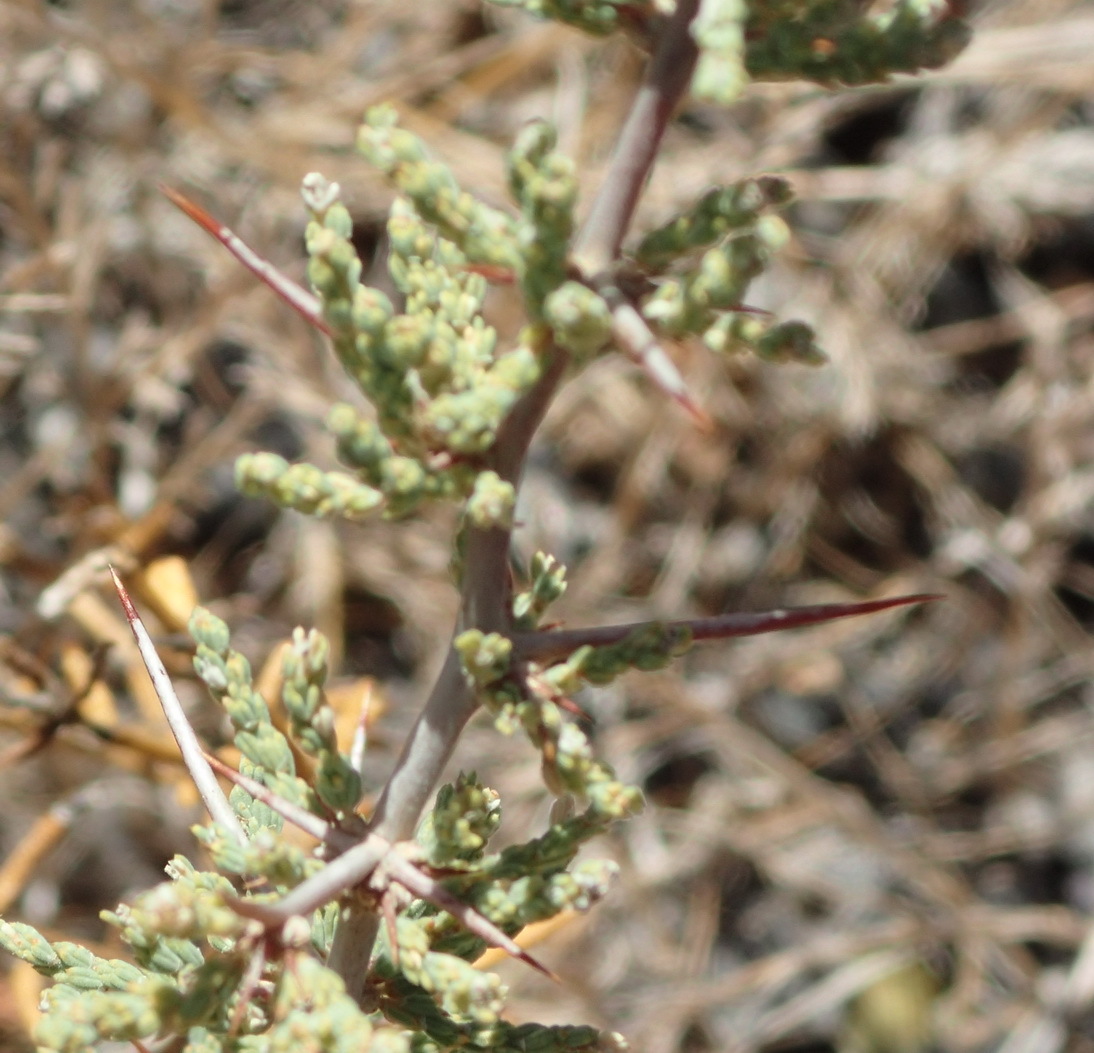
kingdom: Plantae
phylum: Tracheophyta
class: Liliopsida
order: Asparagales
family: Asparagaceae
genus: Asparagus
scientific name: Asparagus capensis
